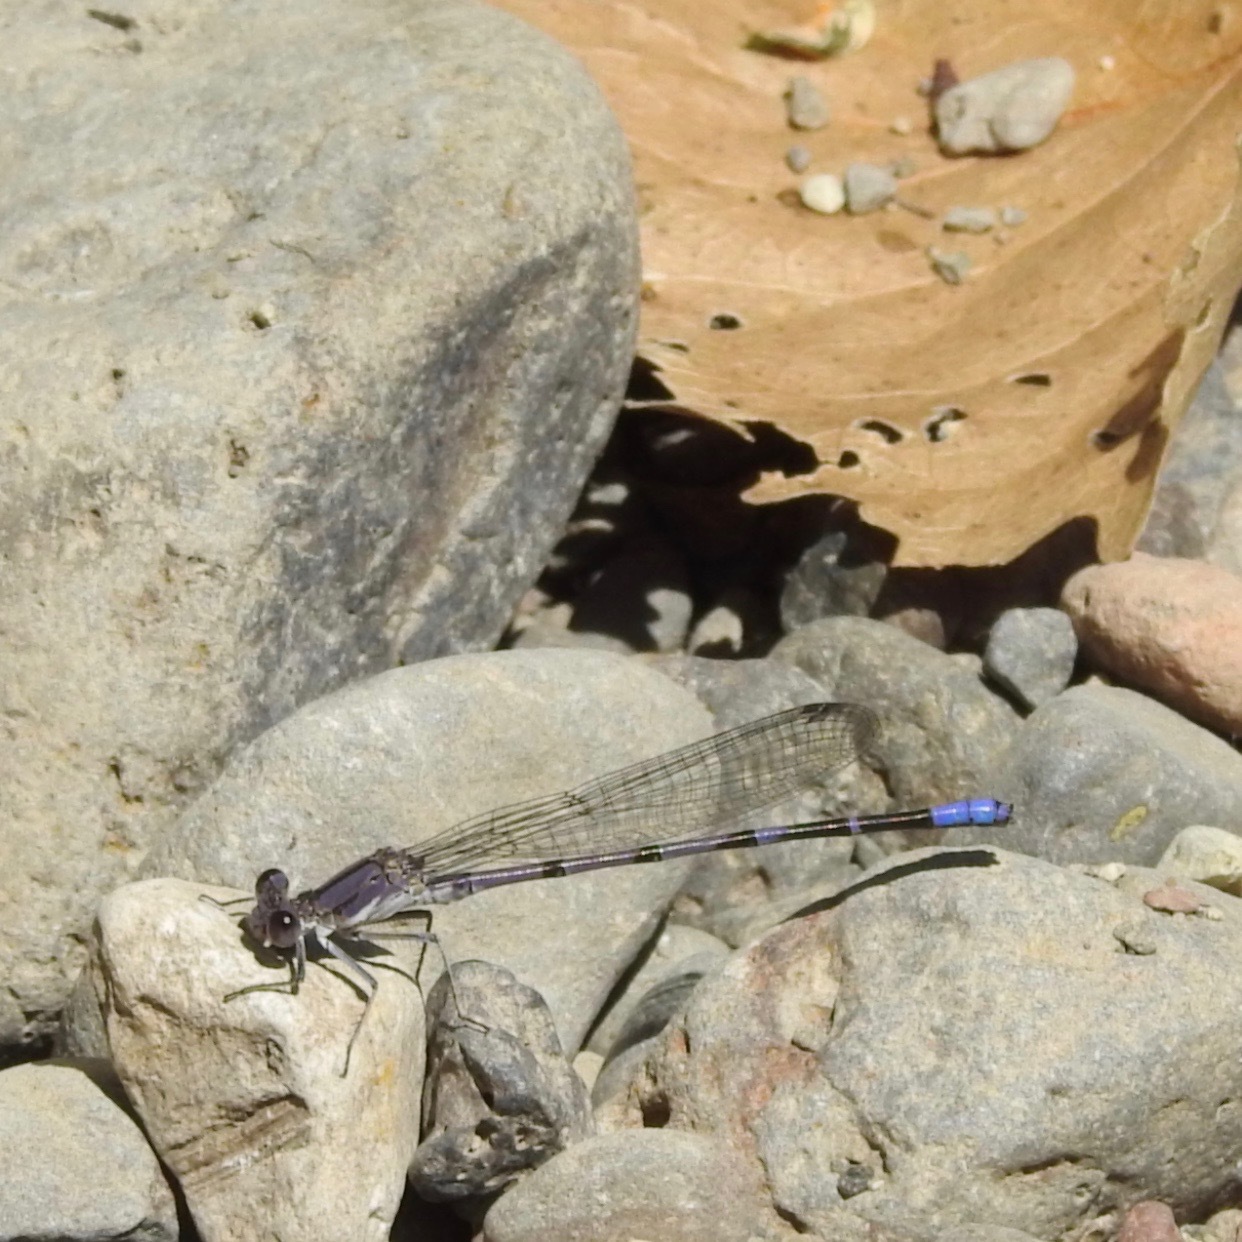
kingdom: Animalia
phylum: Arthropoda
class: Insecta
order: Odonata
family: Coenagrionidae
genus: Argia
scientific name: Argia emma
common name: Emma's dancer
